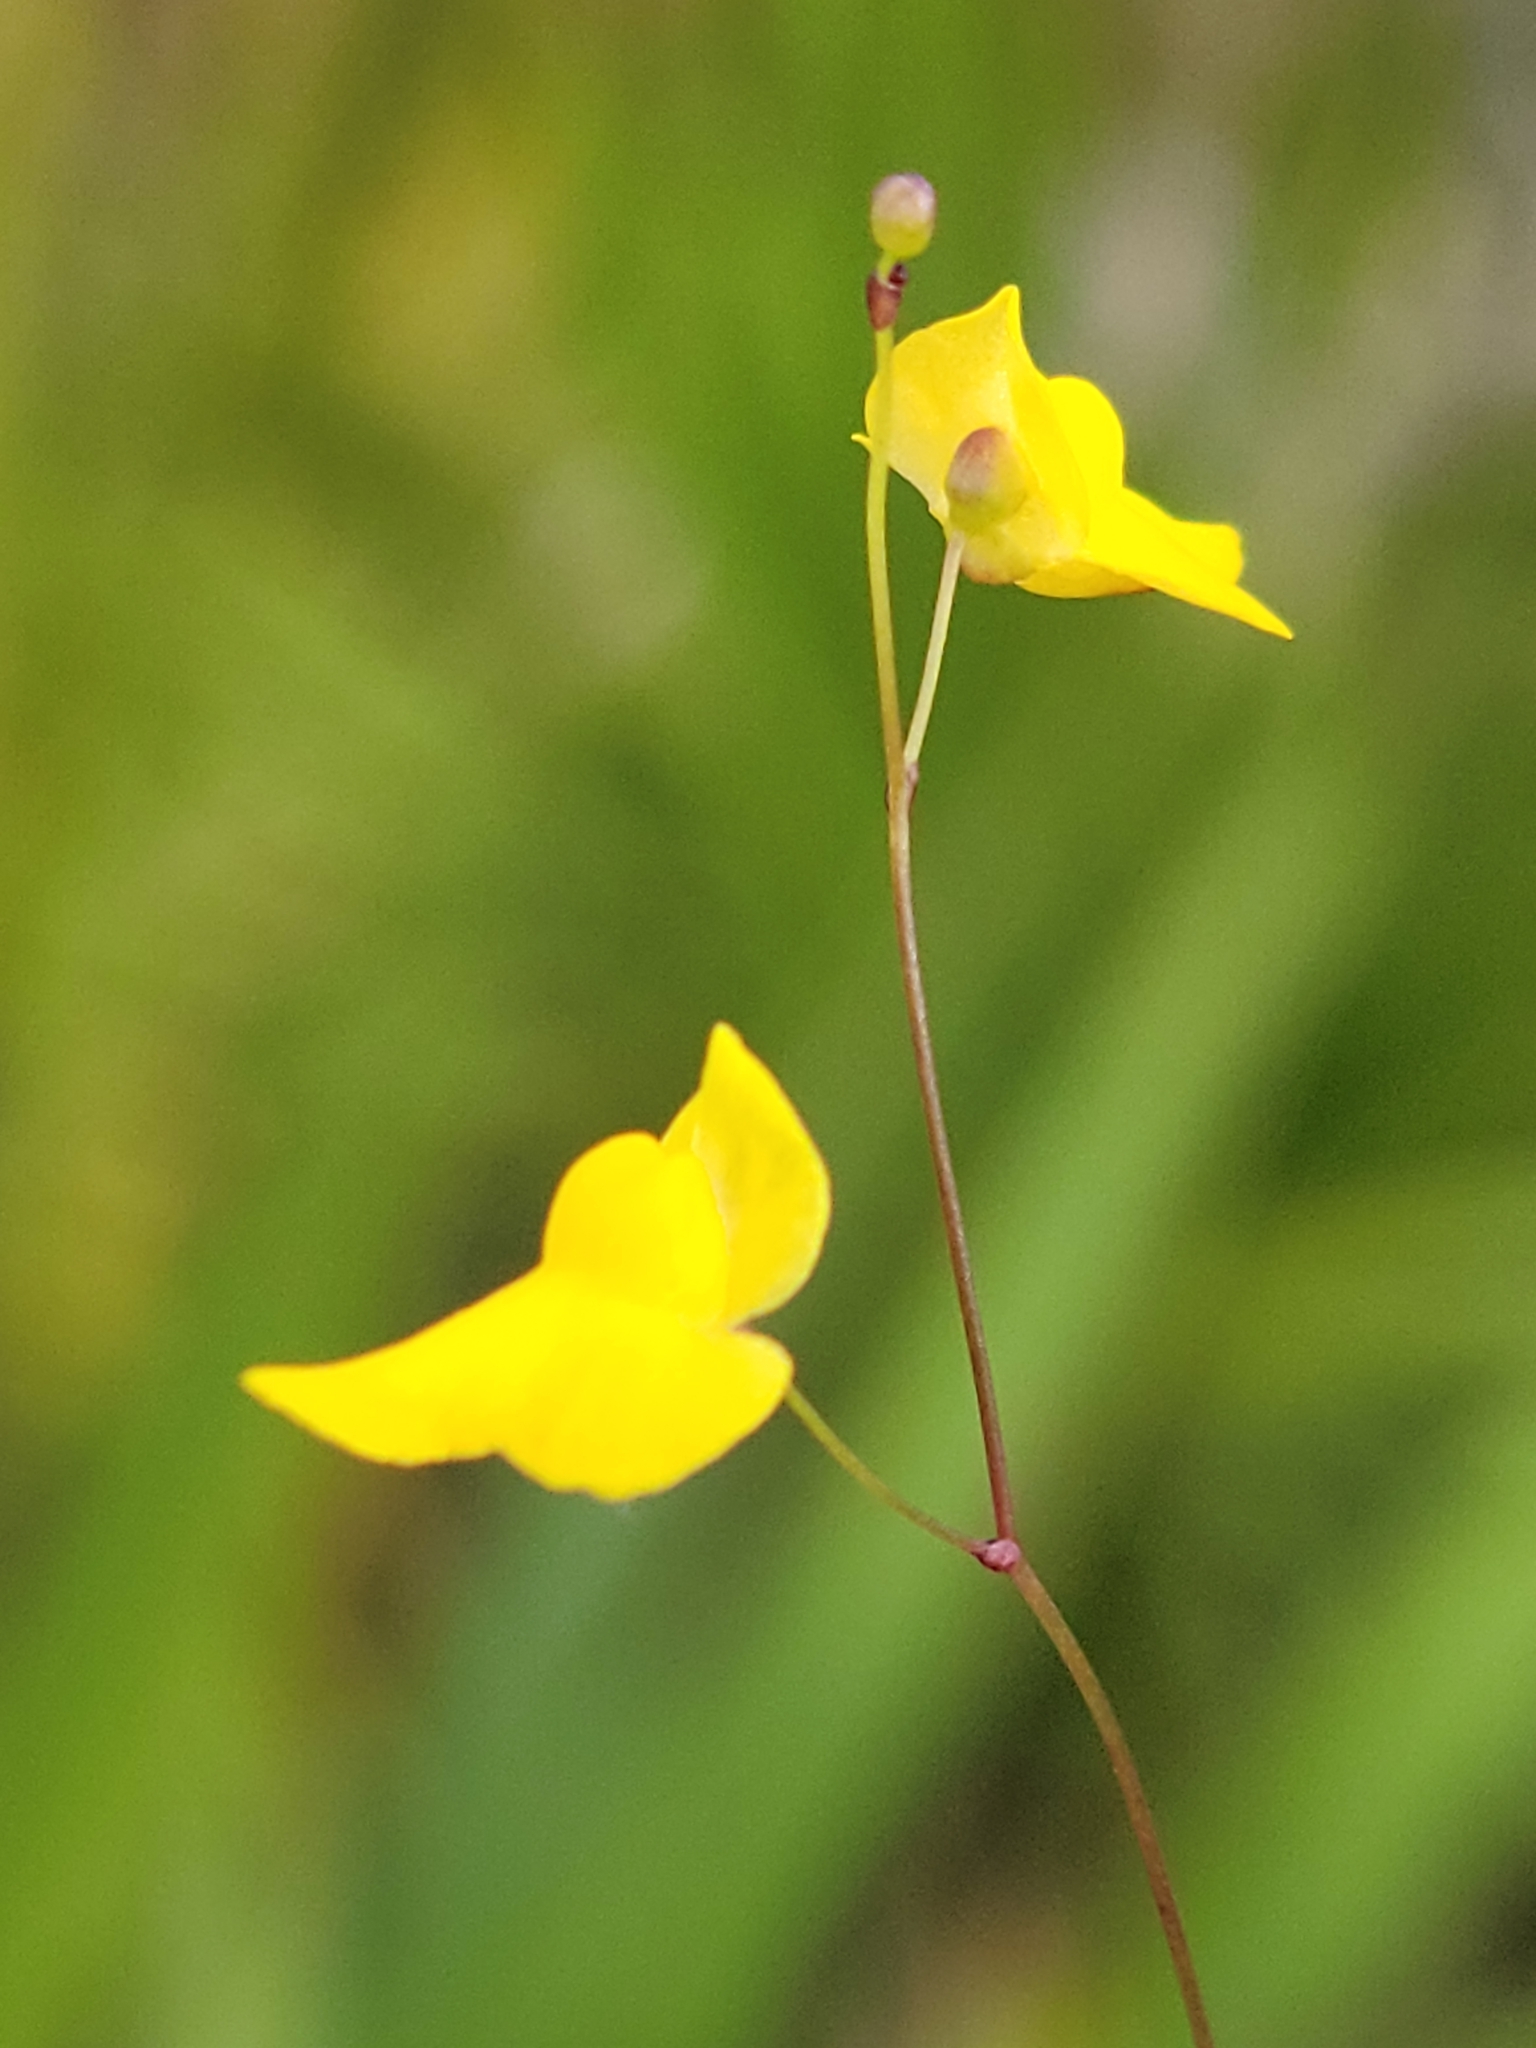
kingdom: Plantae
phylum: Tracheophyta
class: Magnoliopsida
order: Lamiales
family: Lentibulariaceae
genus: Utricularia
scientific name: Utricularia subulata
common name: Tiny bladderwort
